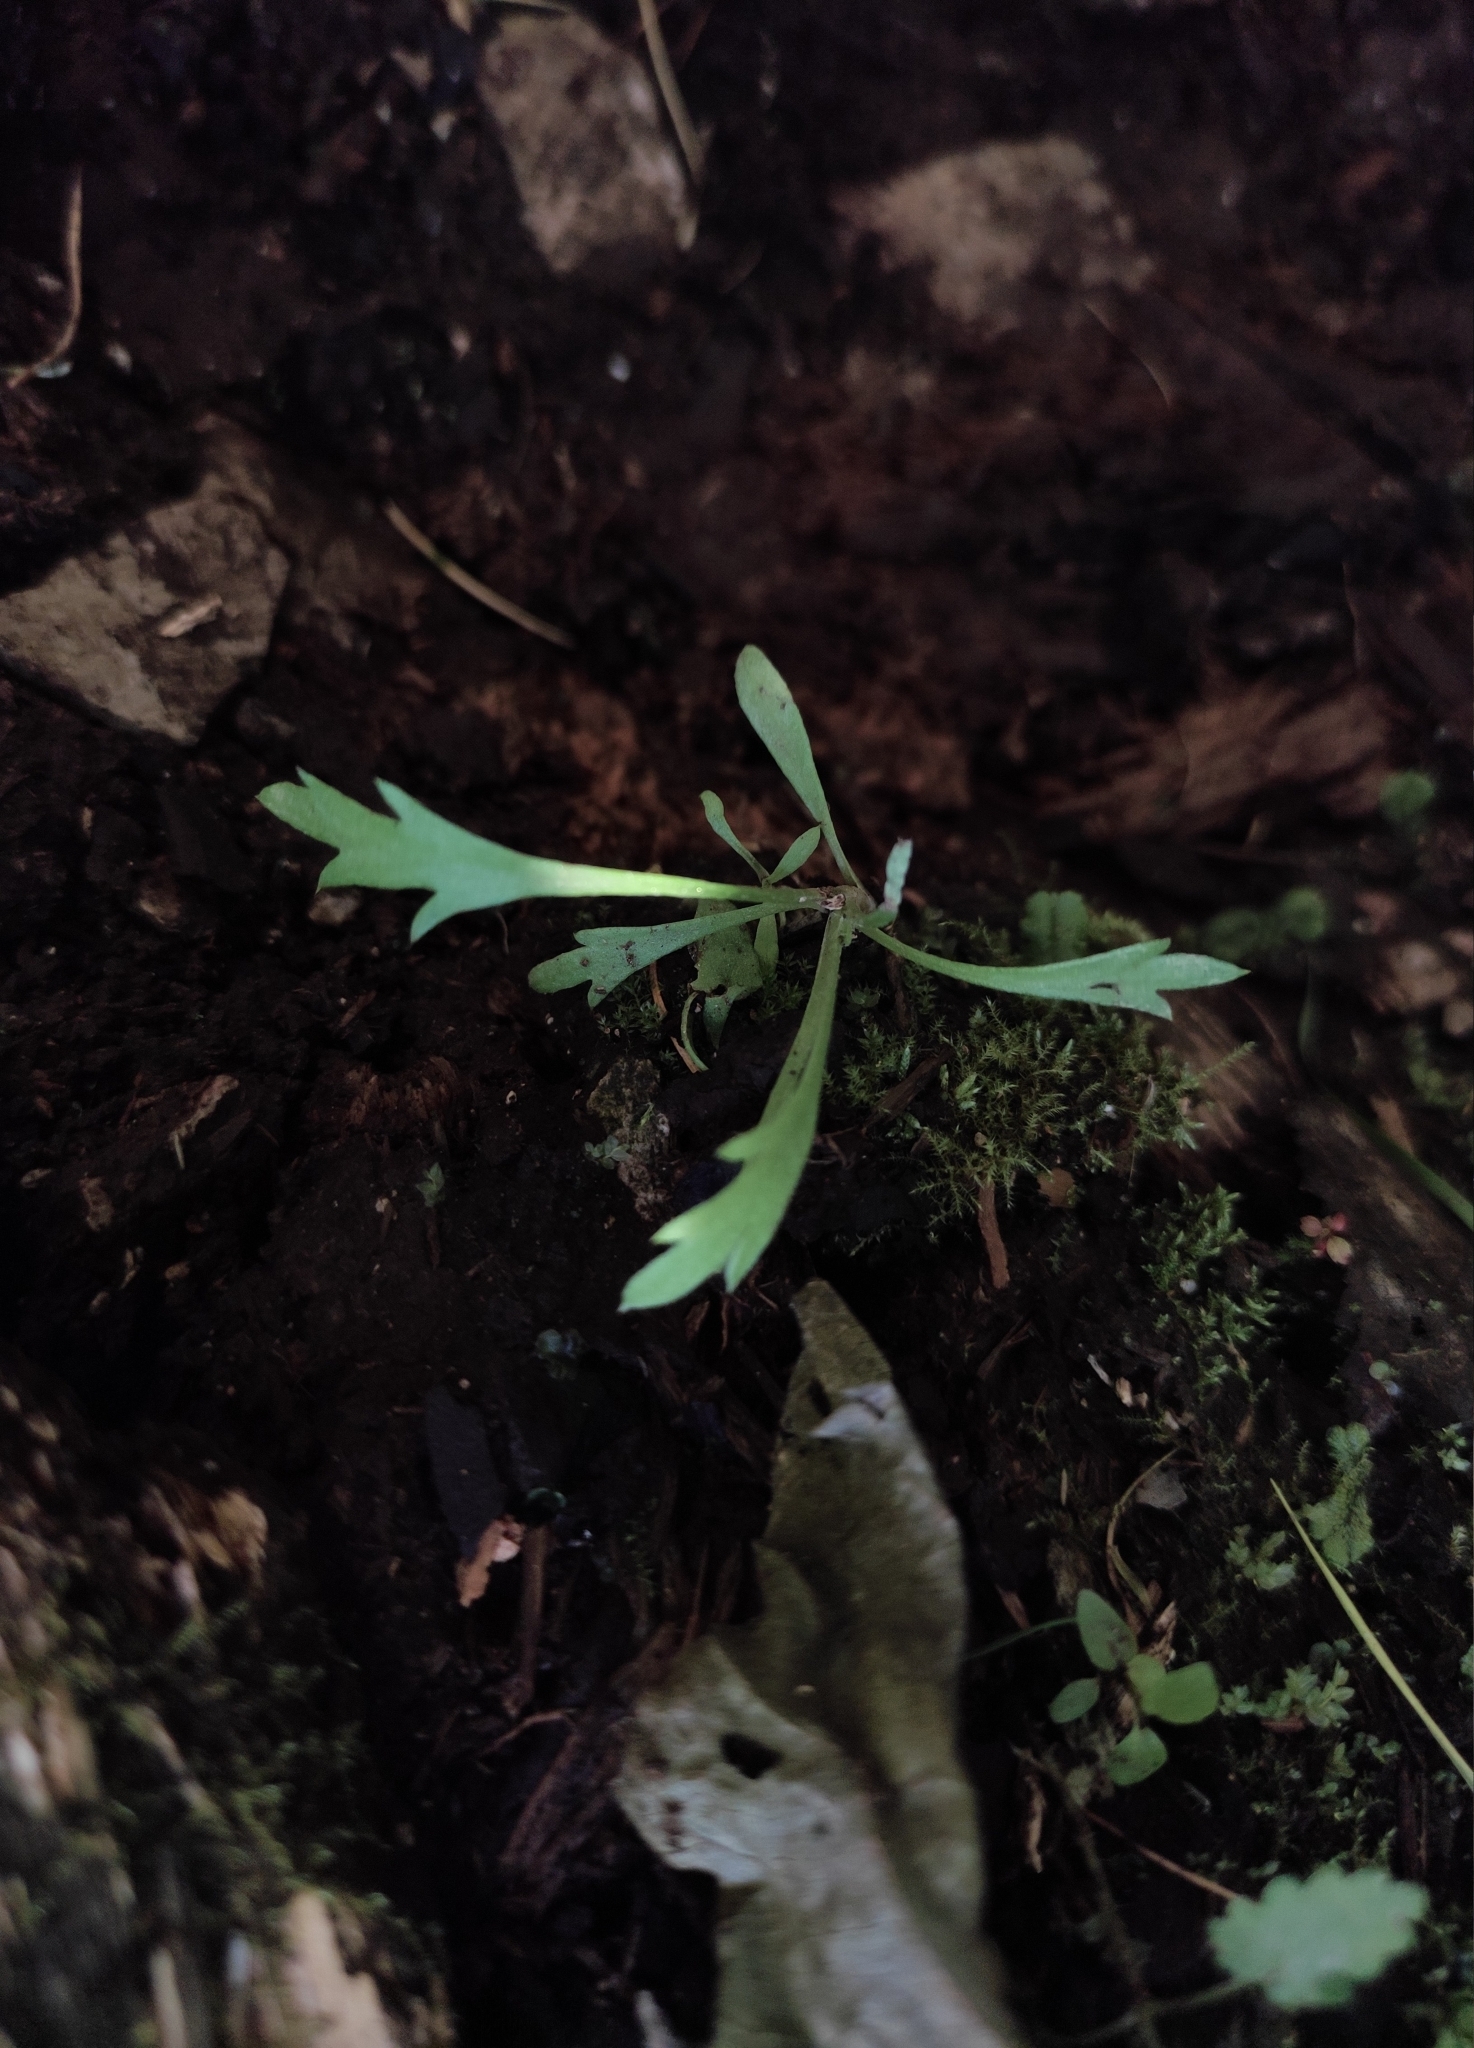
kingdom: Plantae
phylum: Tracheophyta
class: Magnoliopsida
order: Asterales
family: Asteraceae
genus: Artemisia
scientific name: Artemisia integrifolia
